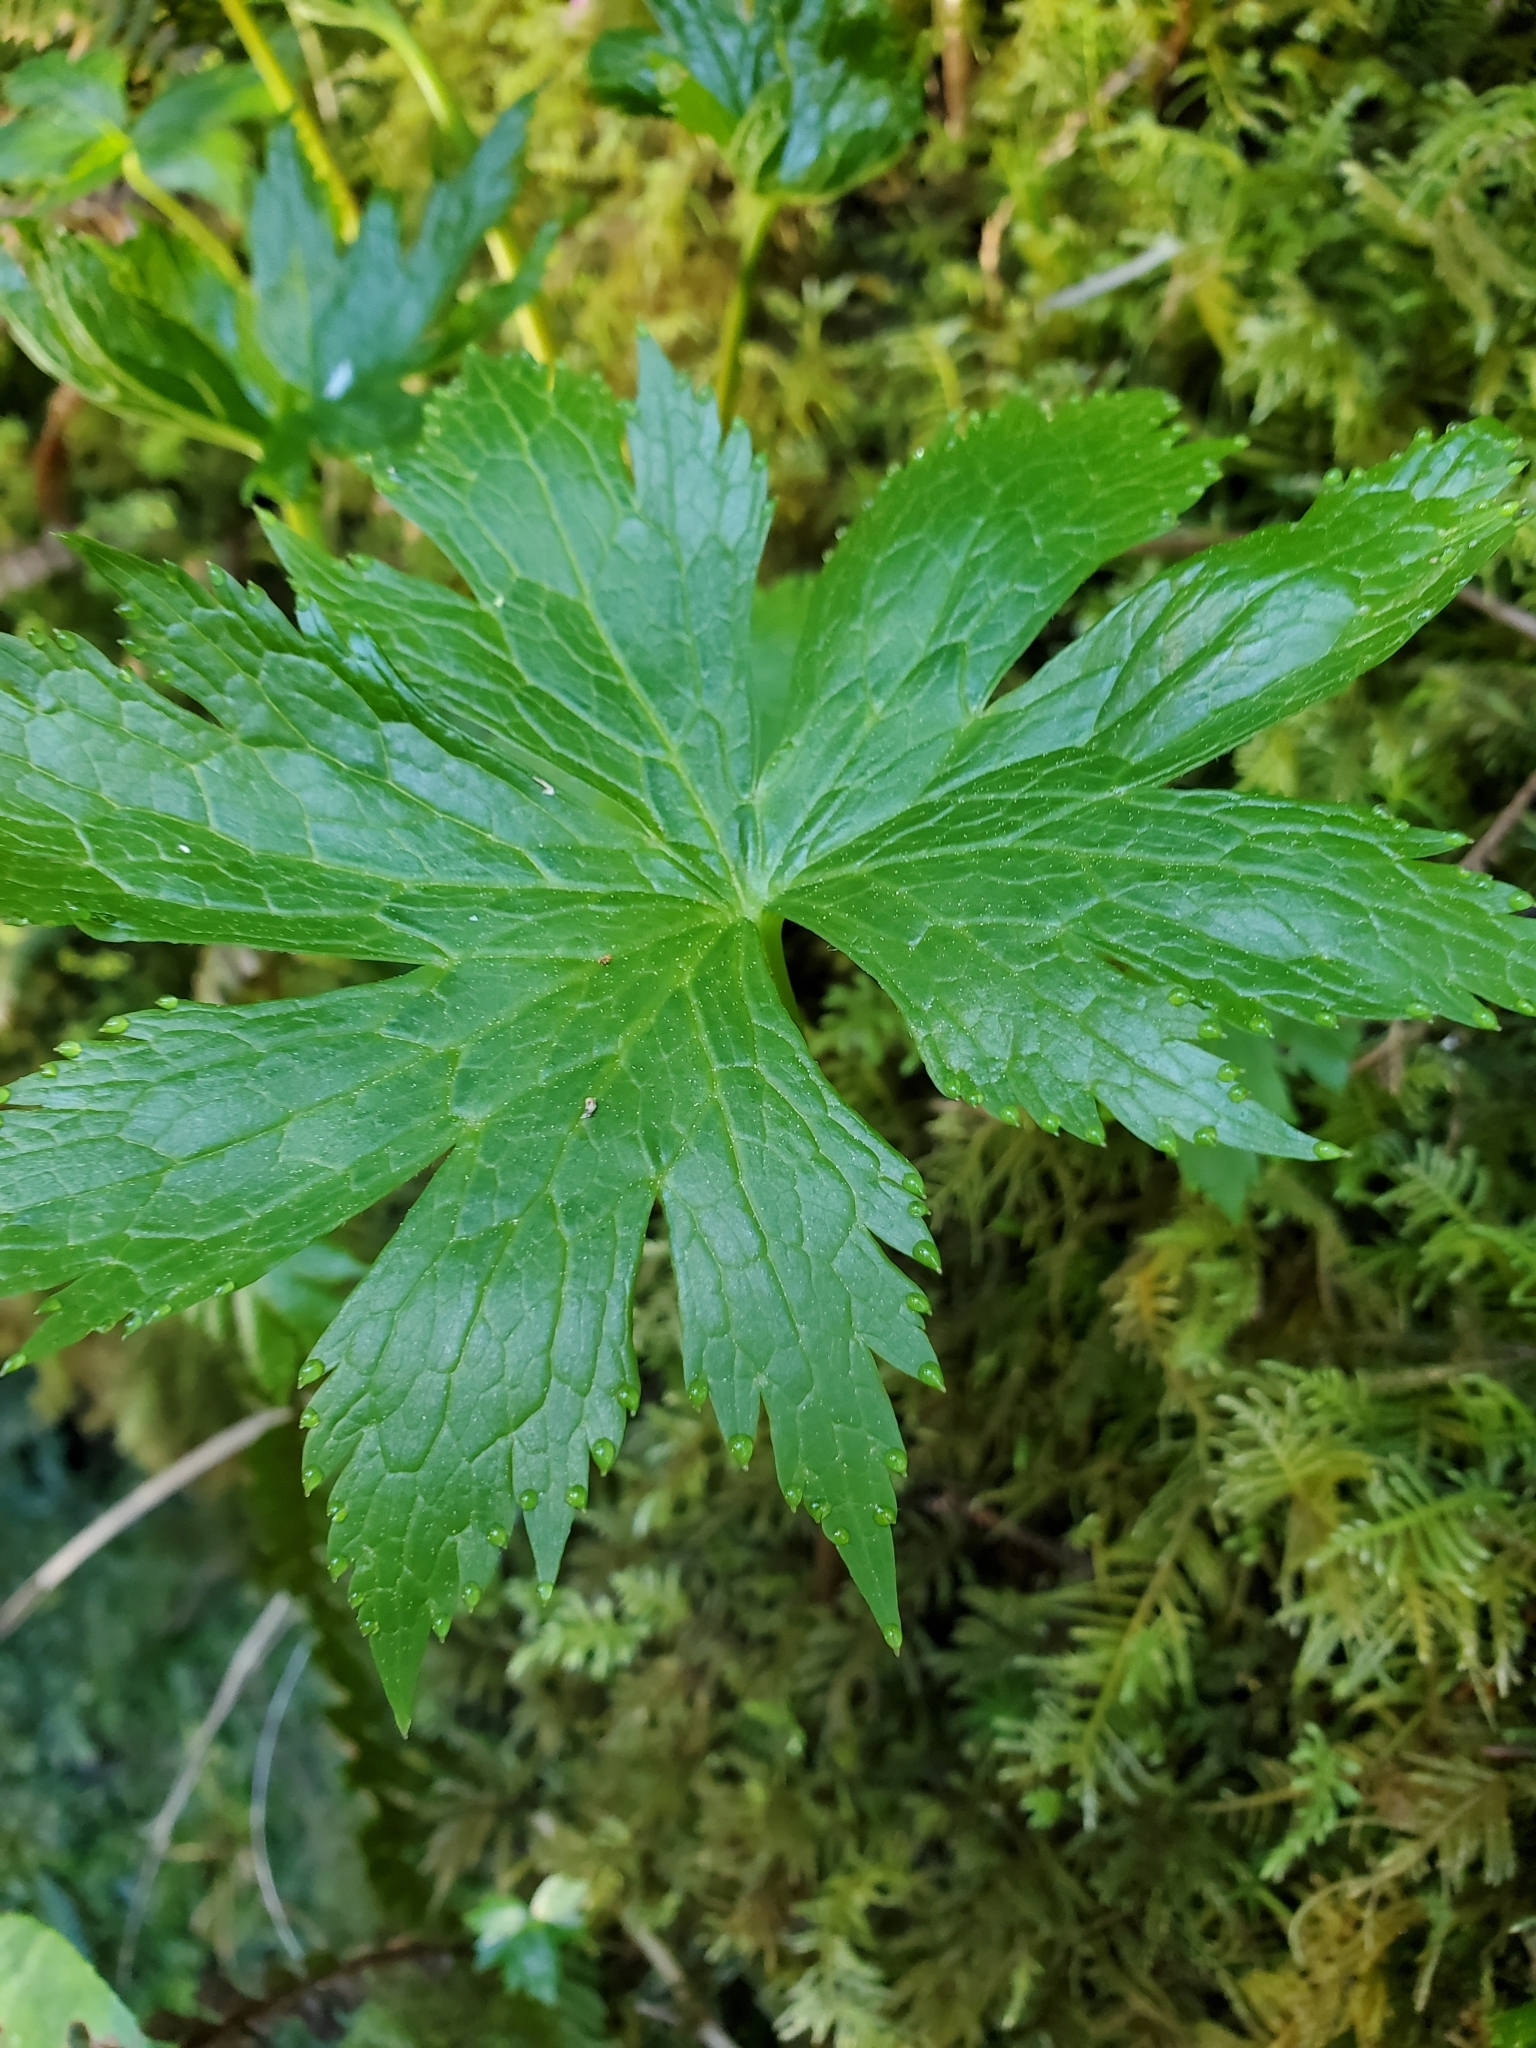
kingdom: Plantae
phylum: Tracheophyta
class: Magnoliopsida
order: Ranunculales
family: Ranunculaceae
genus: Trautvetteria
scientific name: Trautvetteria carolinensis
